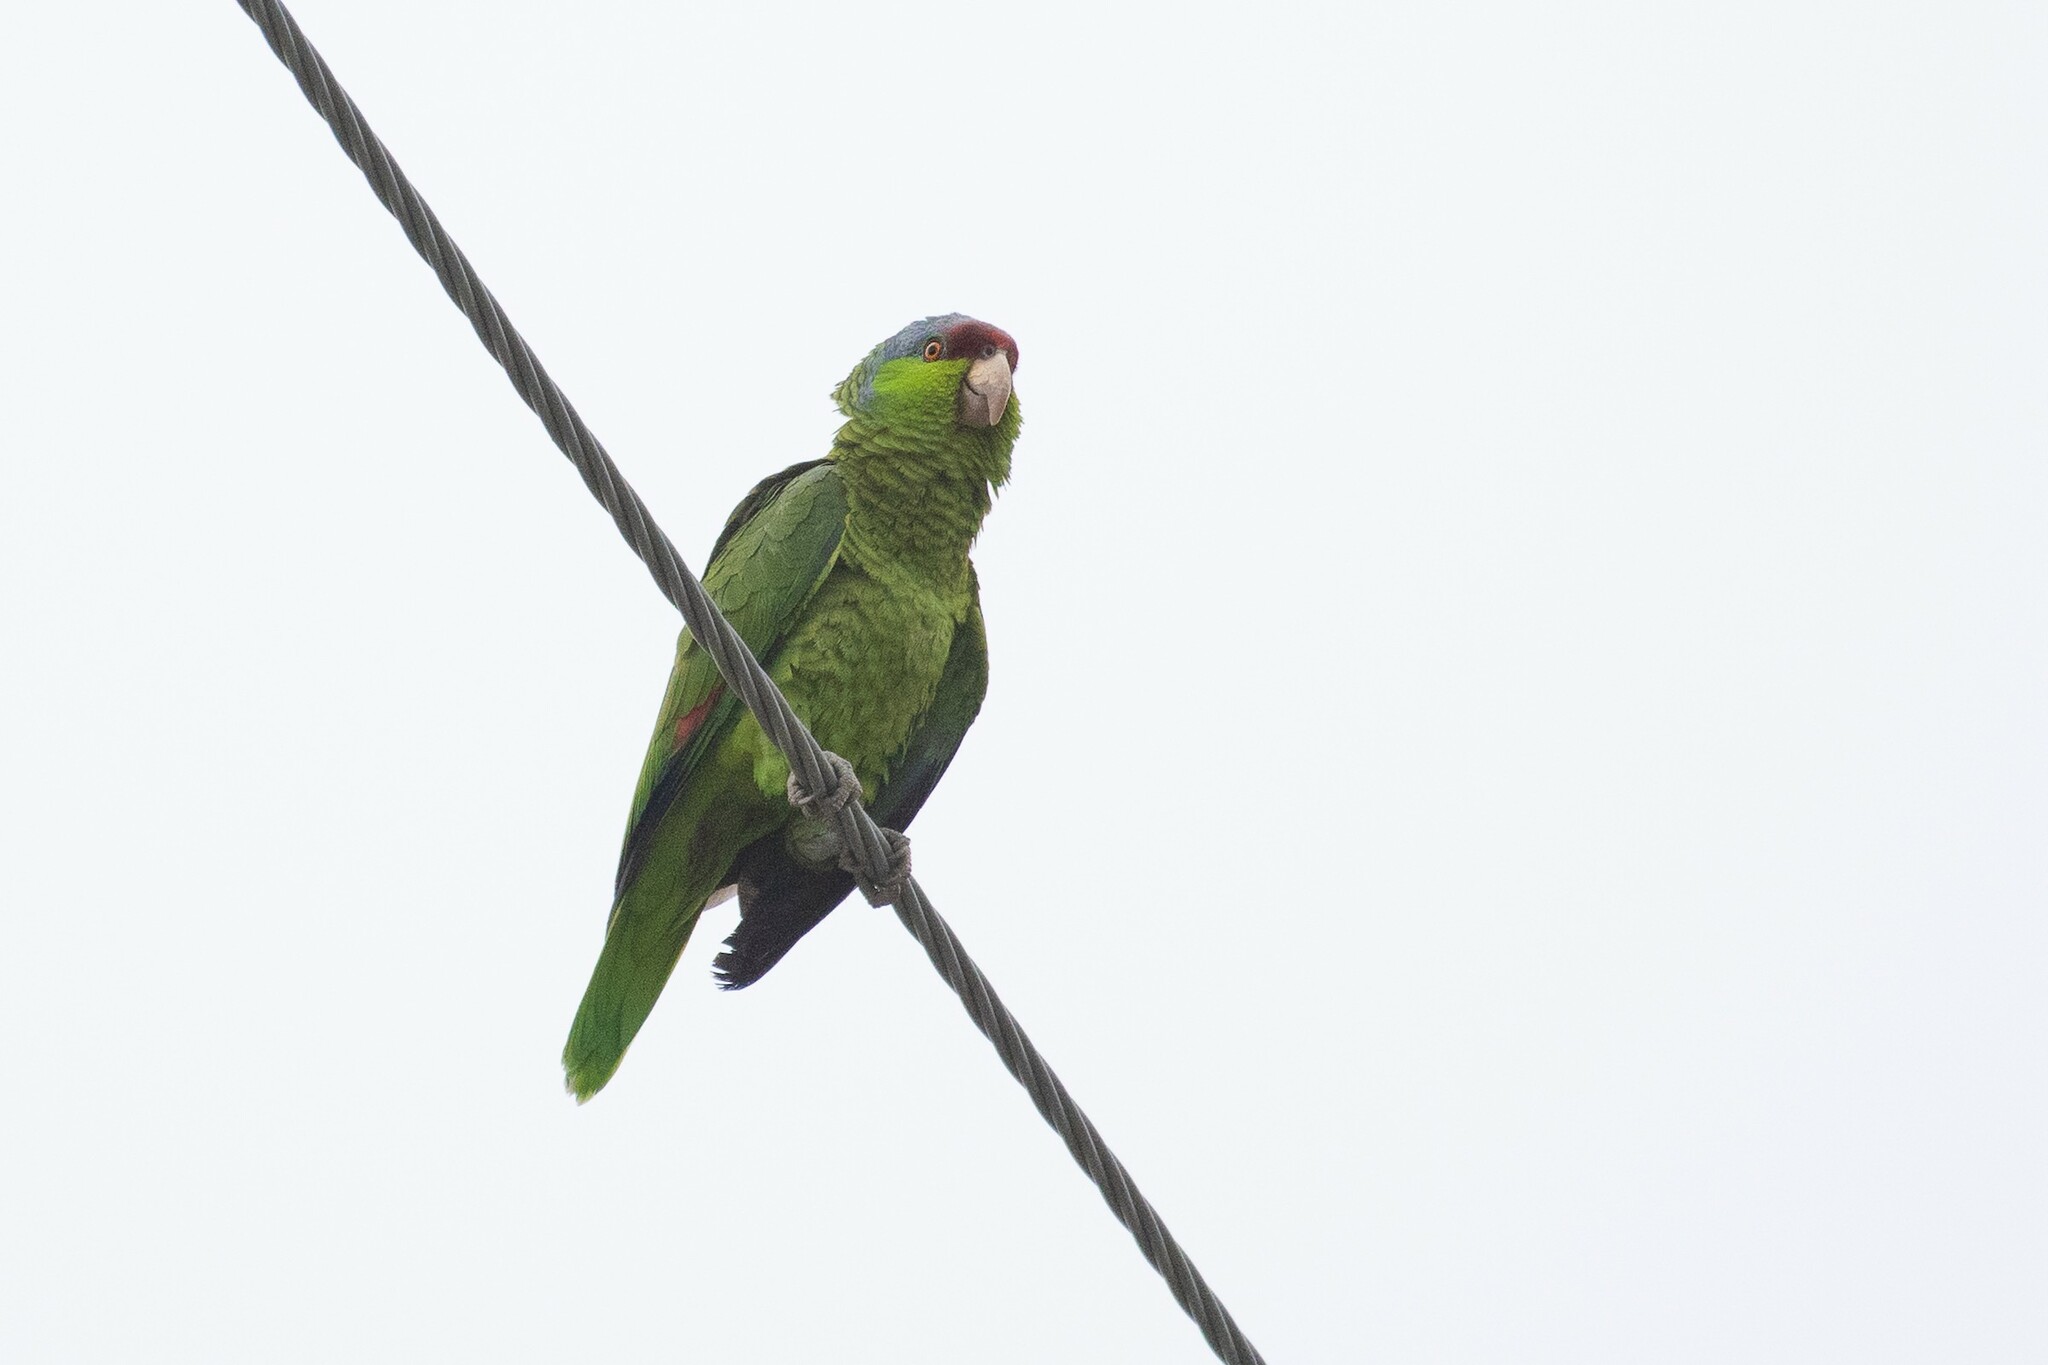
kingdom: Animalia
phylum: Chordata
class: Aves
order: Psittaciformes
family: Psittacidae
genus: Amazona
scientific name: Amazona finschi
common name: Lilac-crowned amazon
